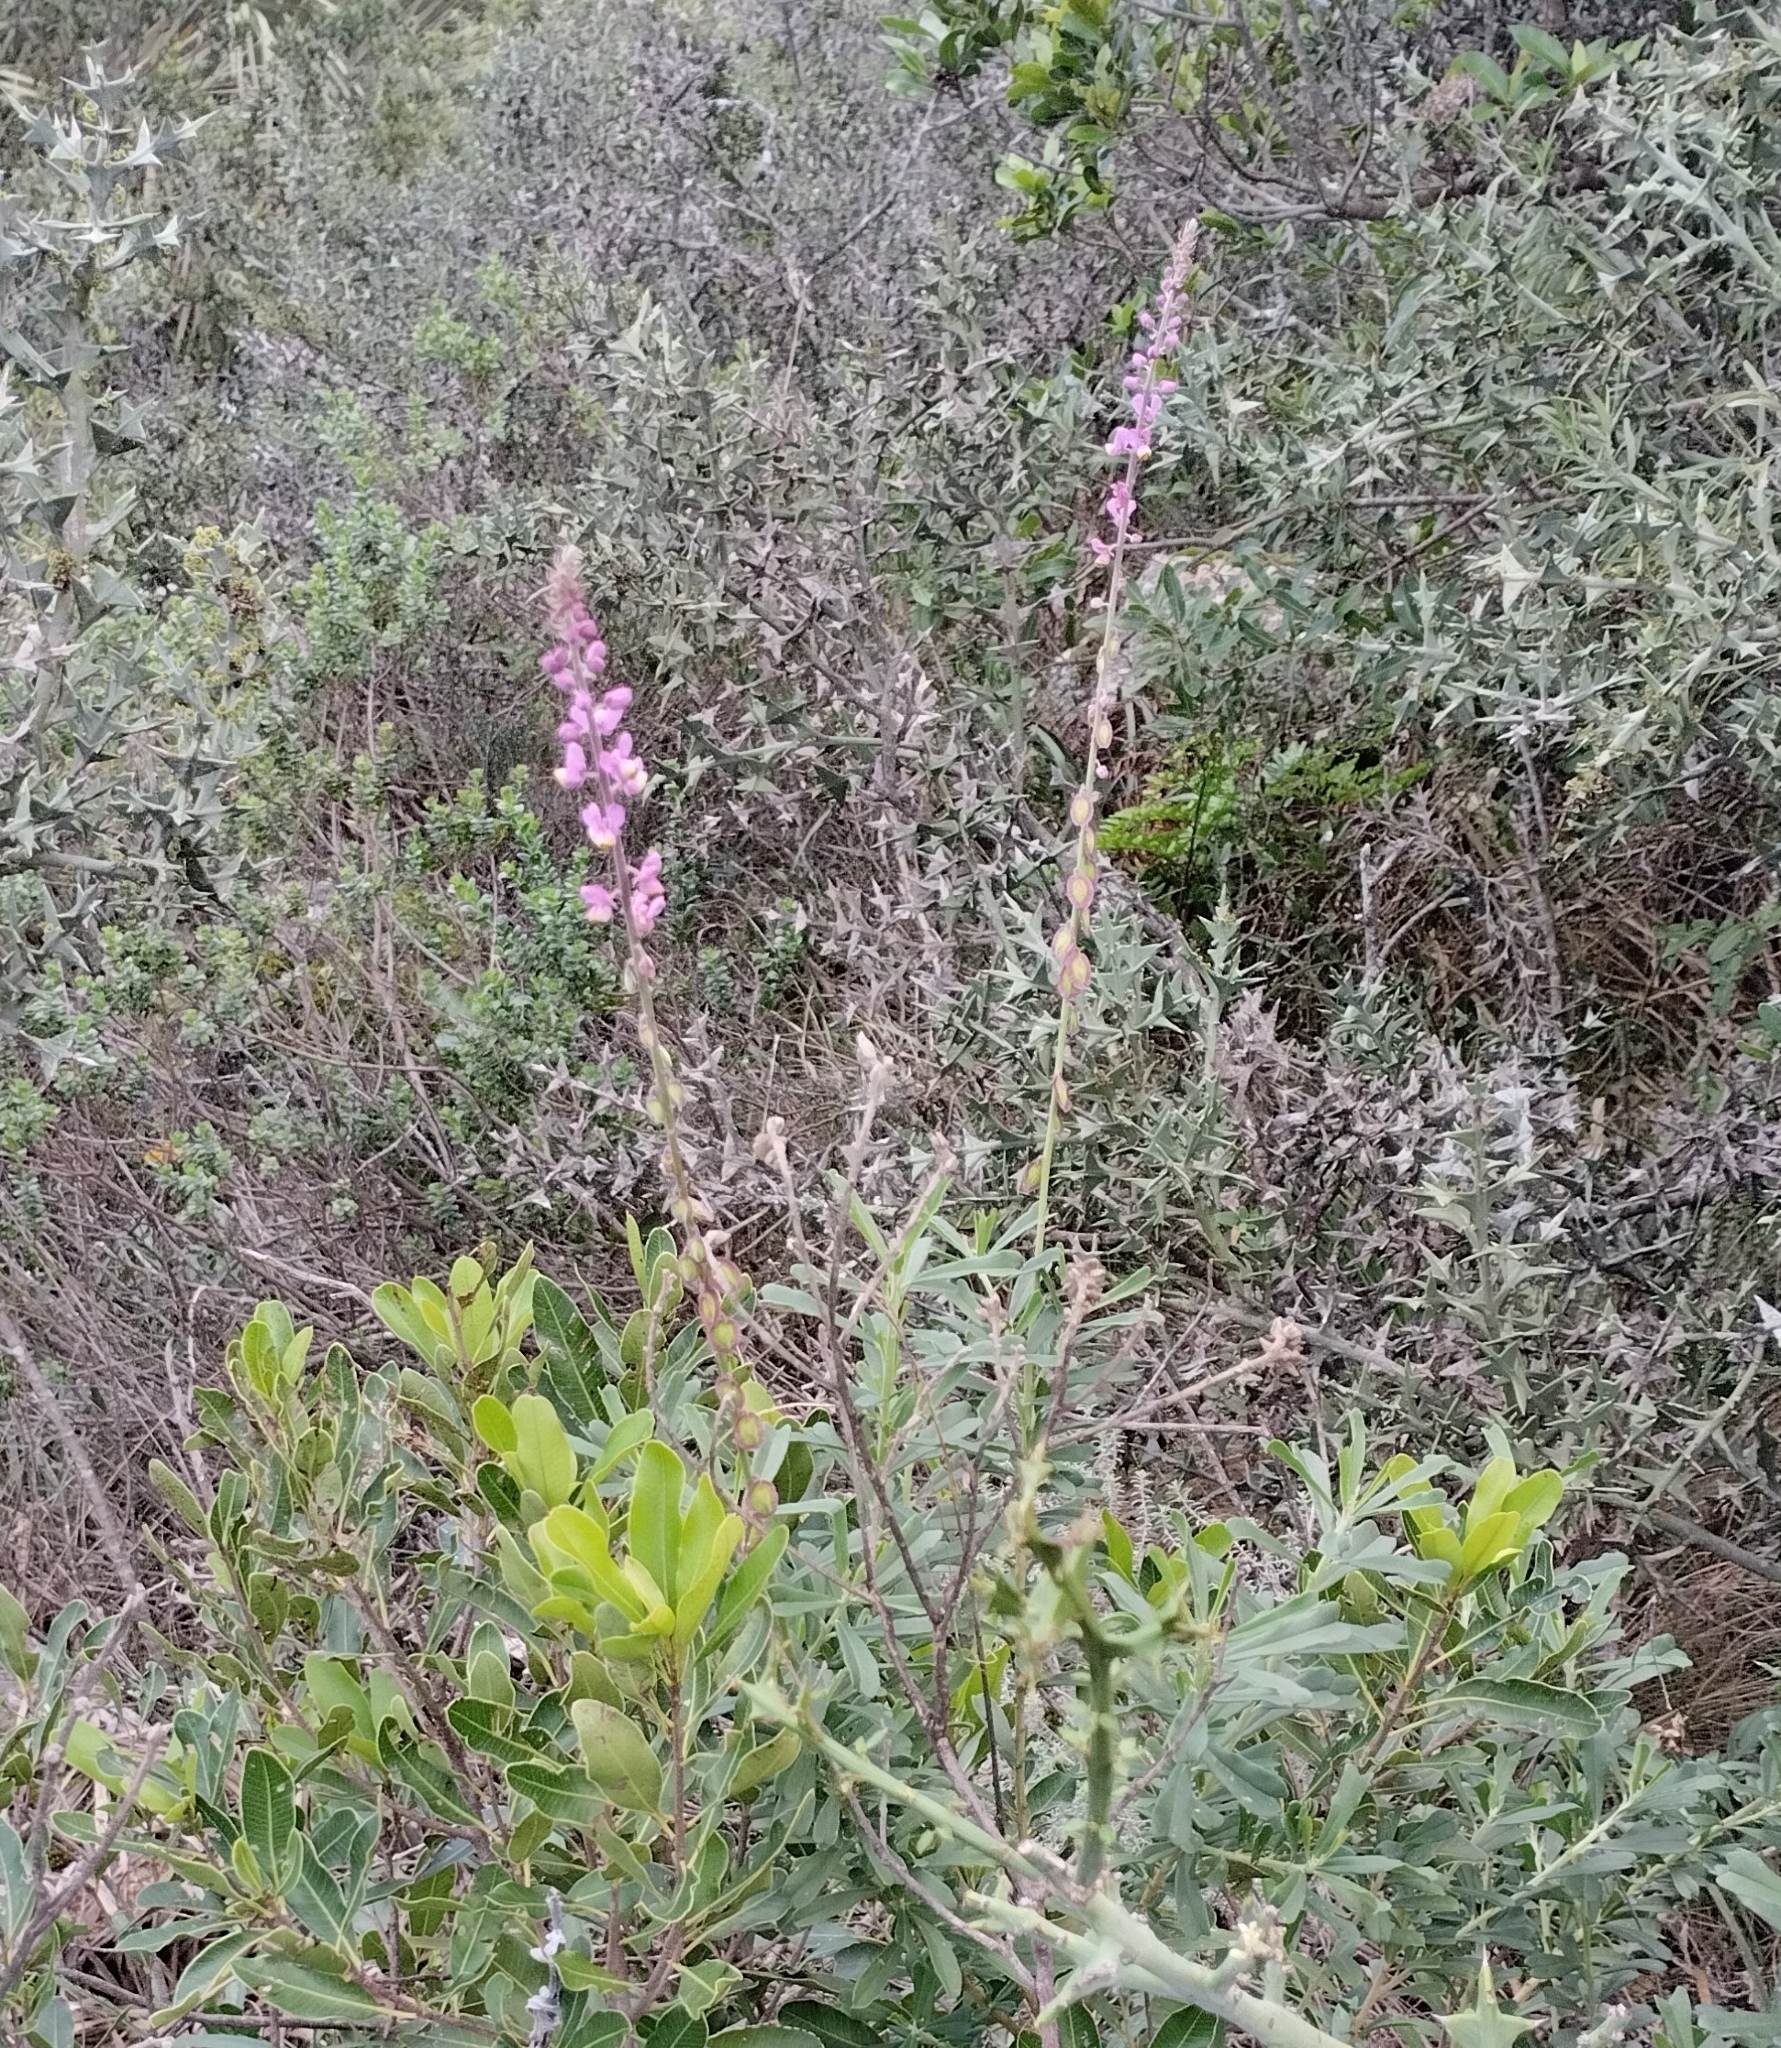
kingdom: Plantae
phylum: Tracheophyta
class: Magnoliopsida
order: Fabales
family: Polygalaceae
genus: Monnina
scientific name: Monnina cuneata
